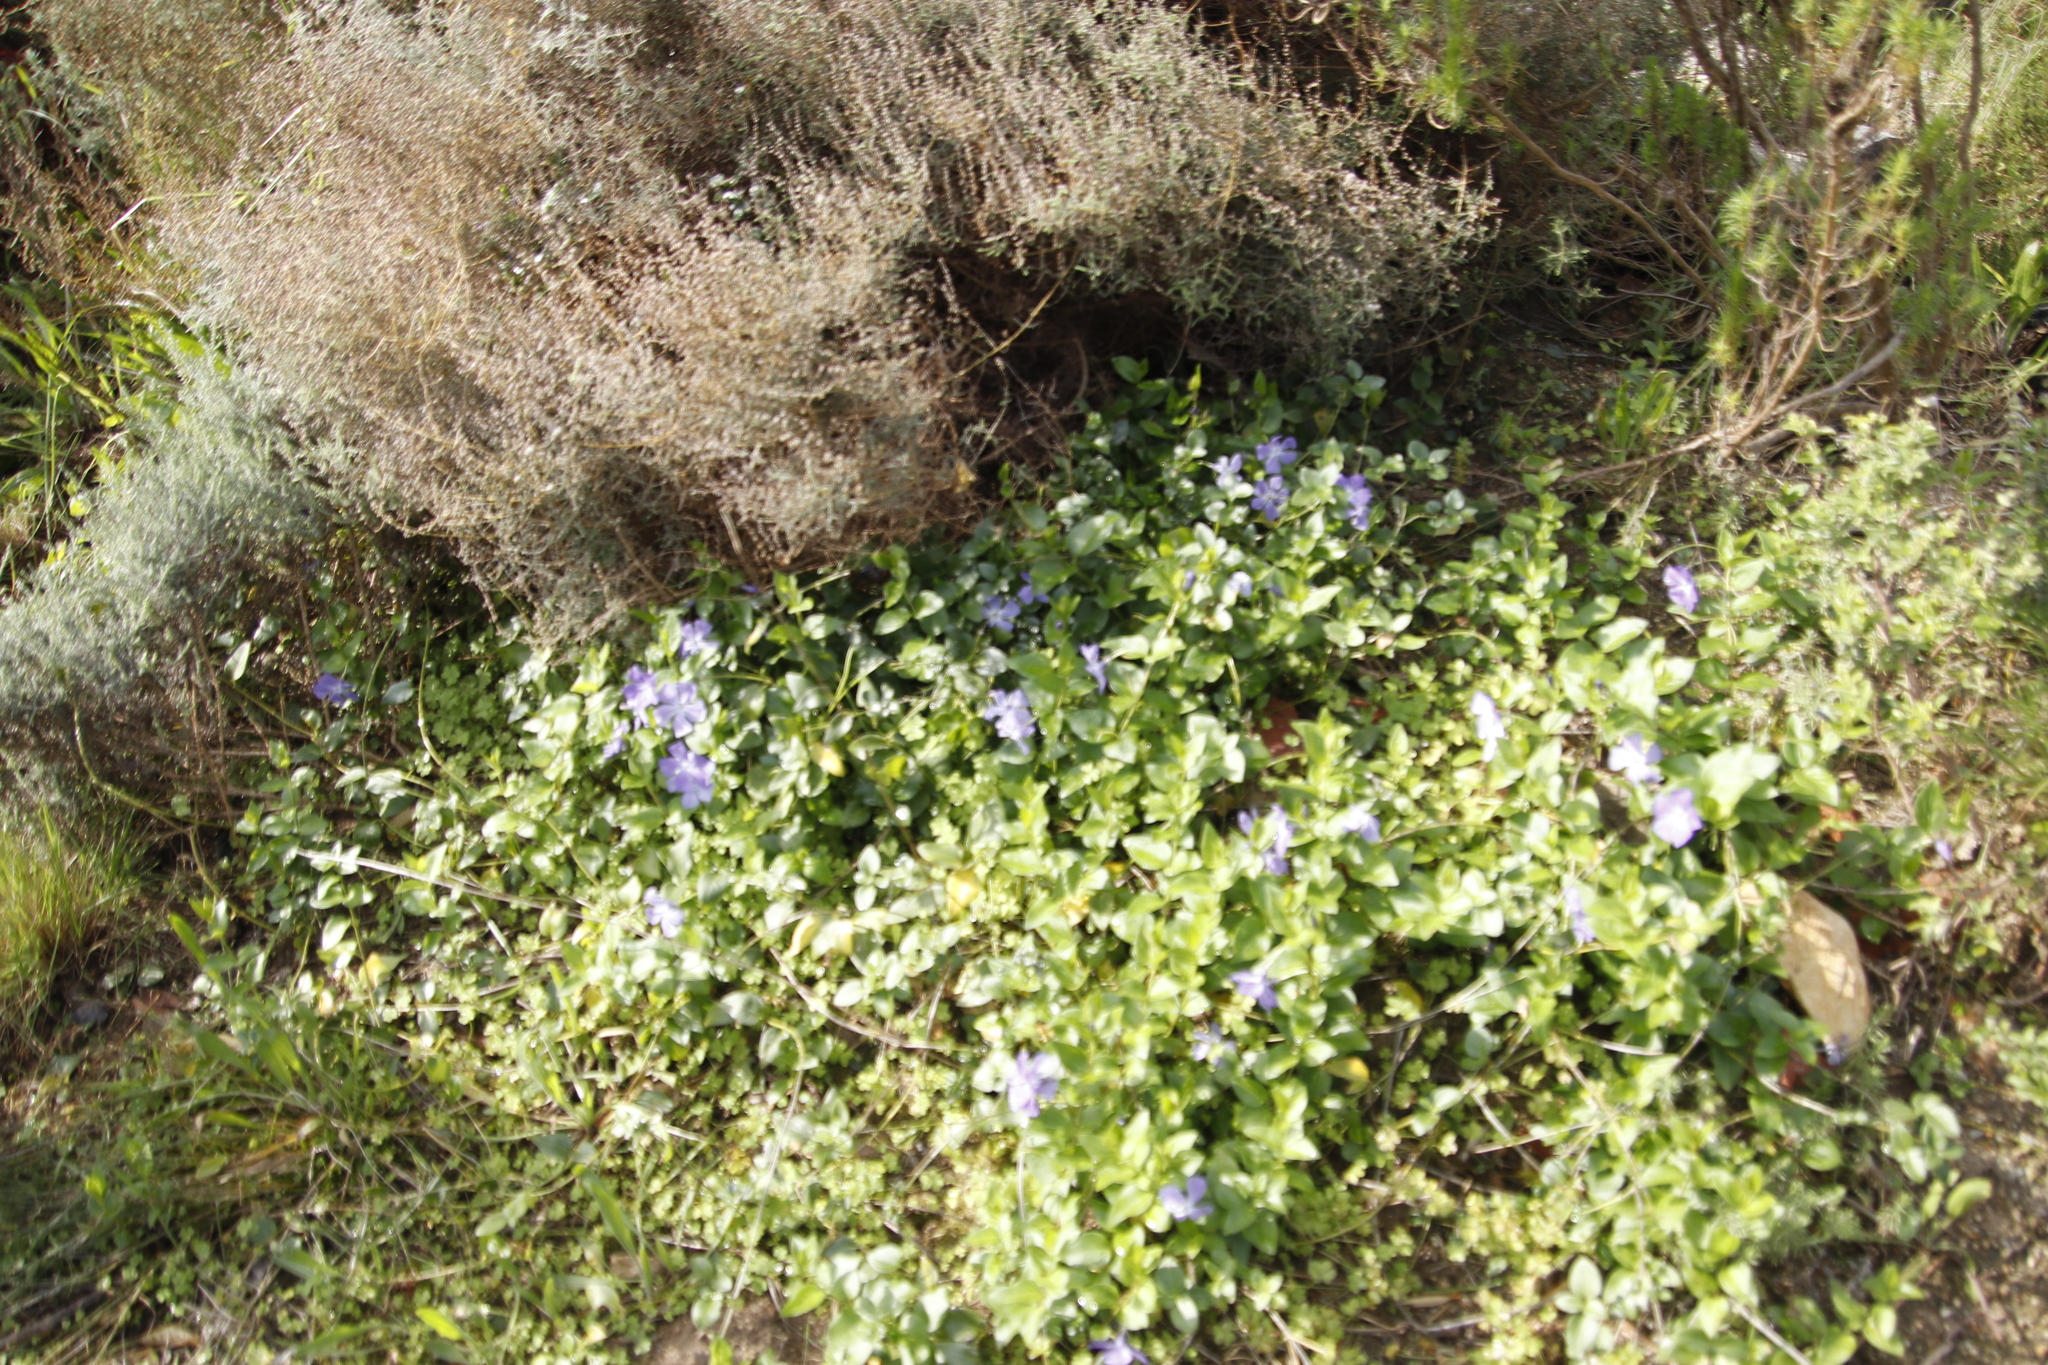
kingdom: Plantae
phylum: Tracheophyta
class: Magnoliopsida
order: Gentianales
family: Apocynaceae
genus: Vinca
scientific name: Vinca major
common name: Greater periwinkle
